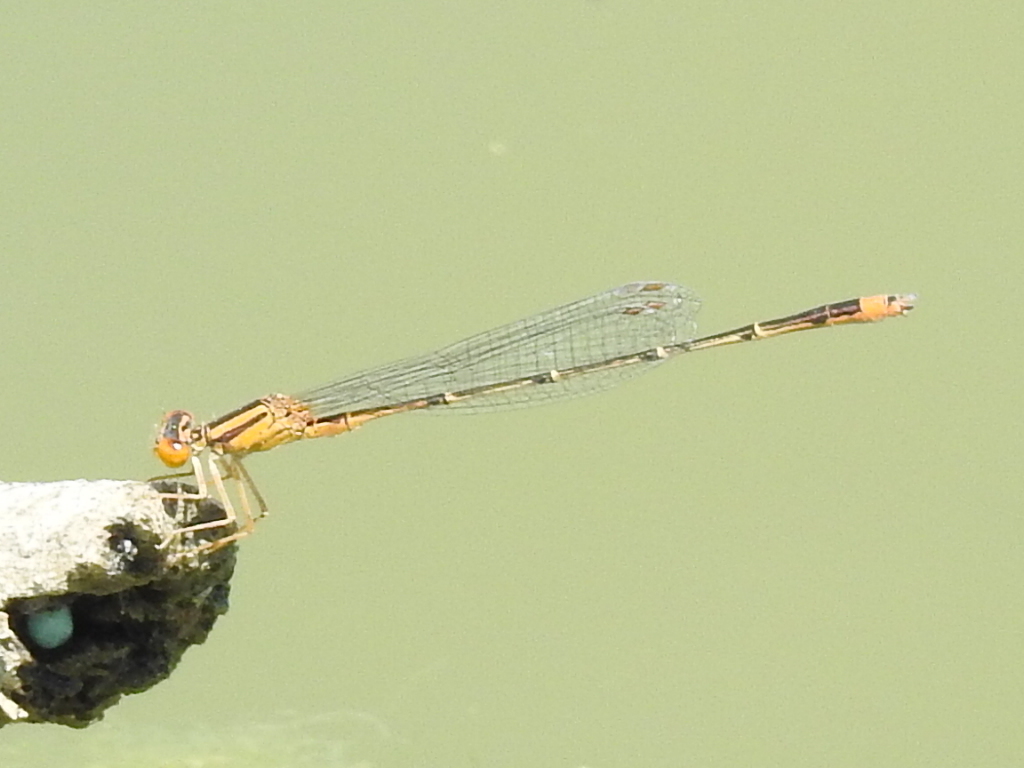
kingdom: Animalia
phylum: Arthropoda
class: Insecta
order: Odonata
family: Coenagrionidae
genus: Enallagma
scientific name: Enallagma signatum
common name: Orange bluet
